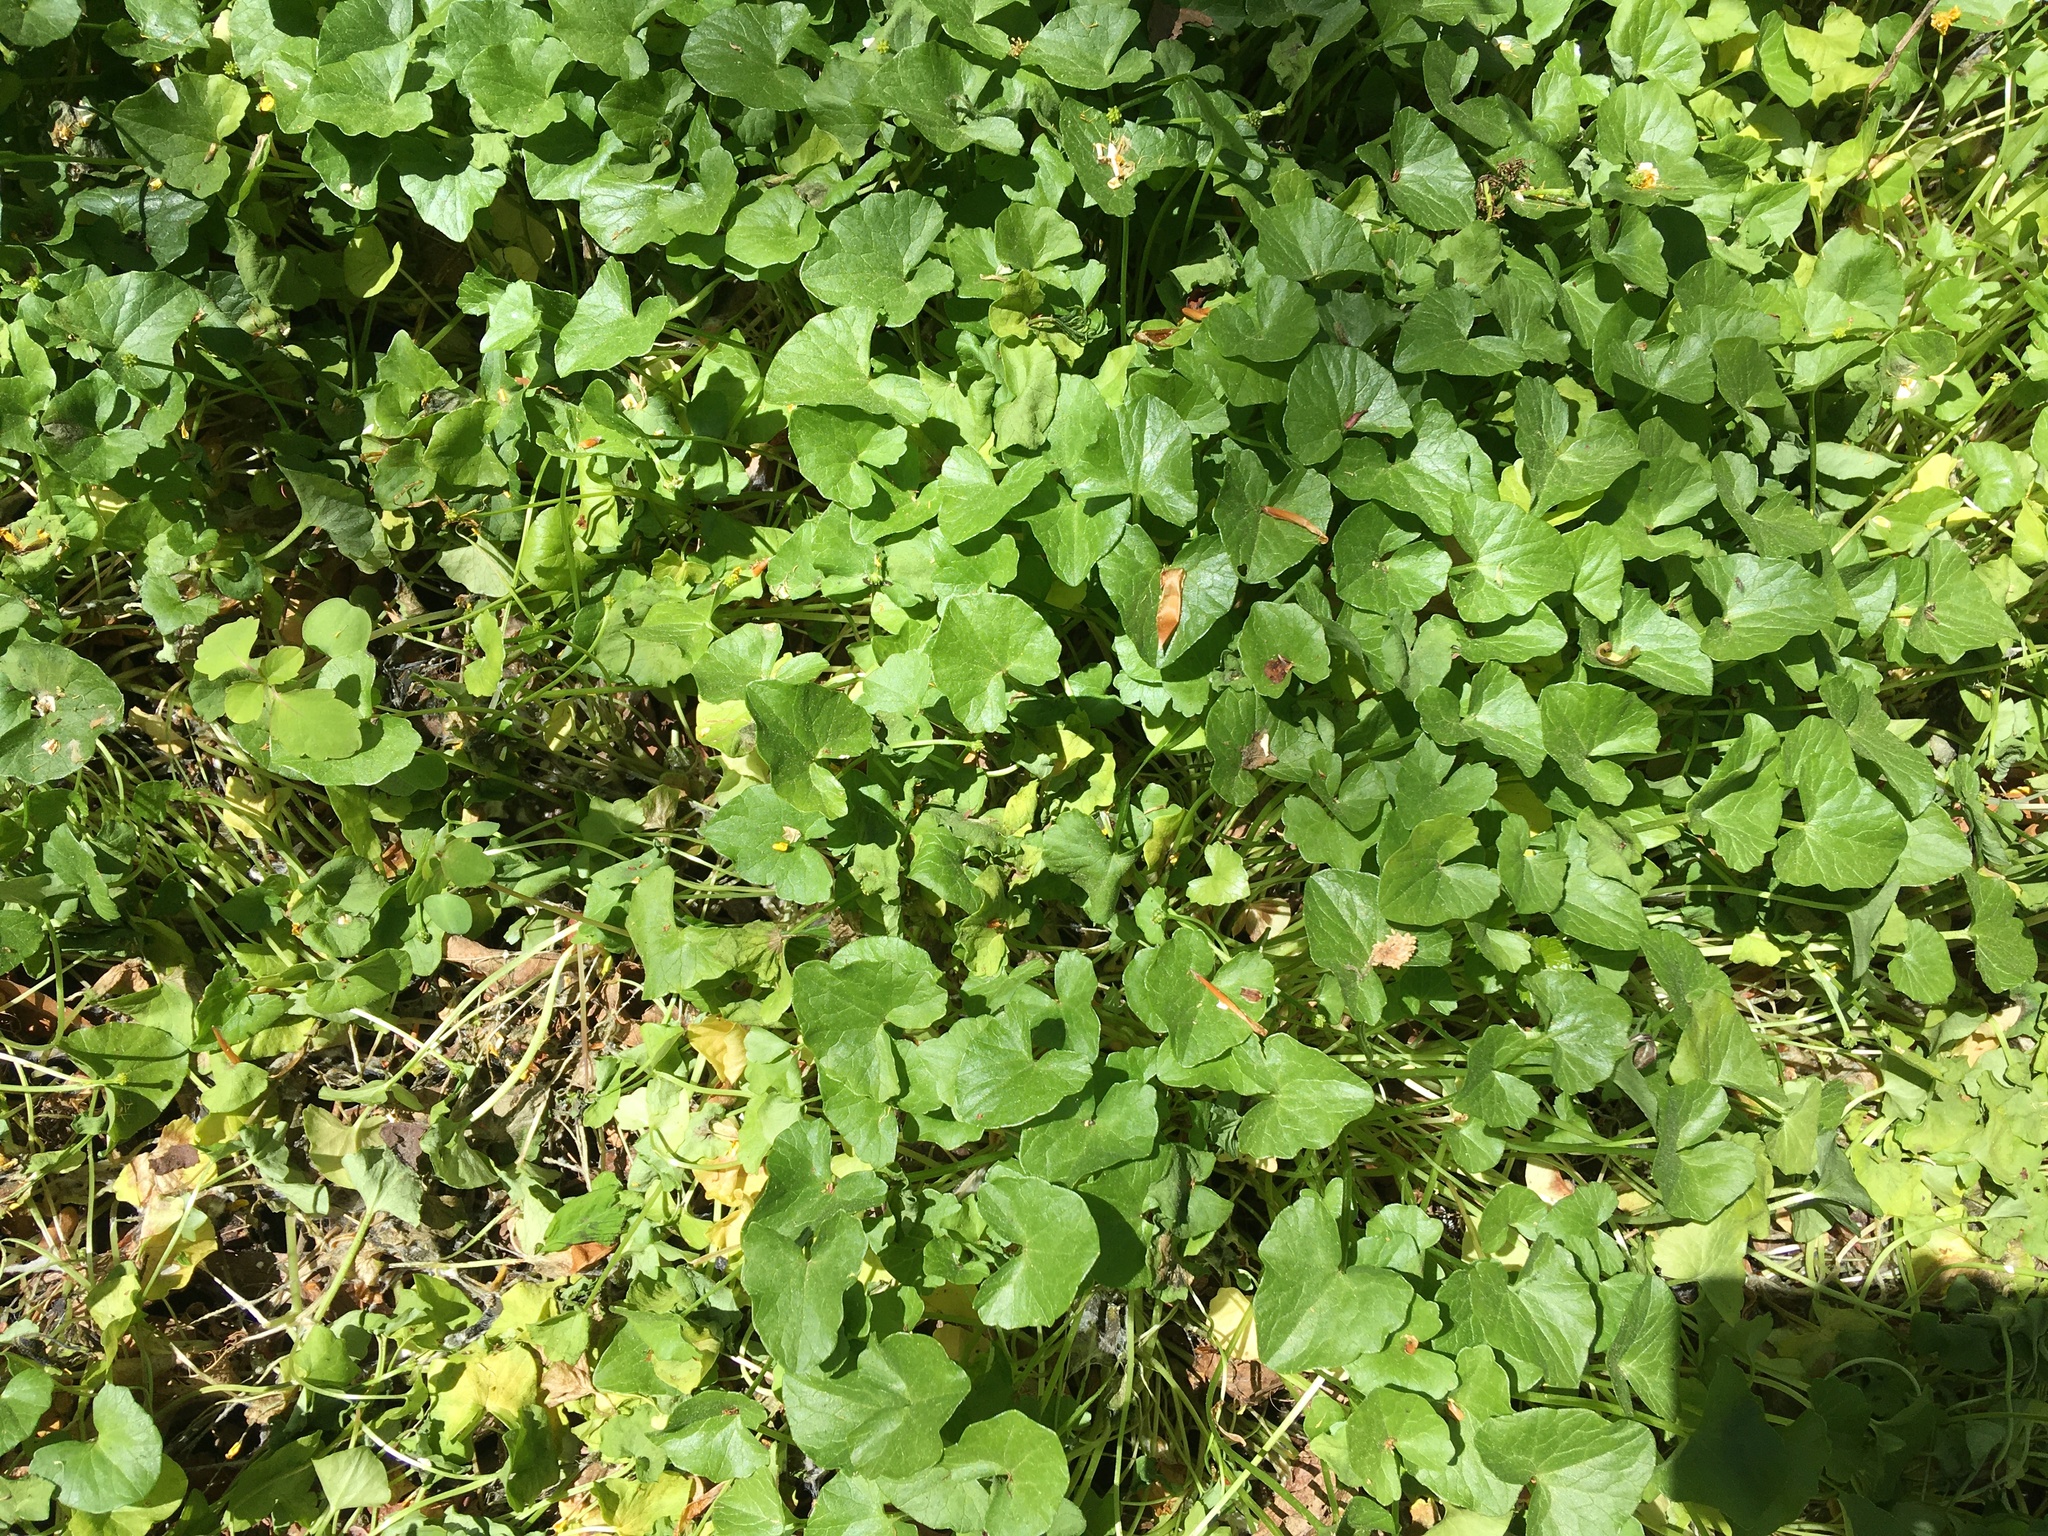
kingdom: Plantae
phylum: Tracheophyta
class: Magnoliopsida
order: Ranunculales
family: Ranunculaceae
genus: Ficaria
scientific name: Ficaria verna
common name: Lesser celandine
